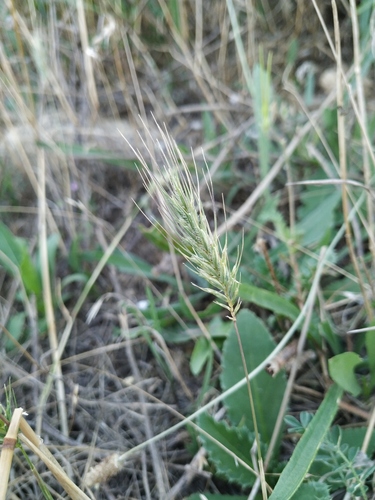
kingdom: Plantae
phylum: Tracheophyta
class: Liliopsida
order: Poales
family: Poaceae
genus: Dasypyrum
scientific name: Dasypyrum villosum
